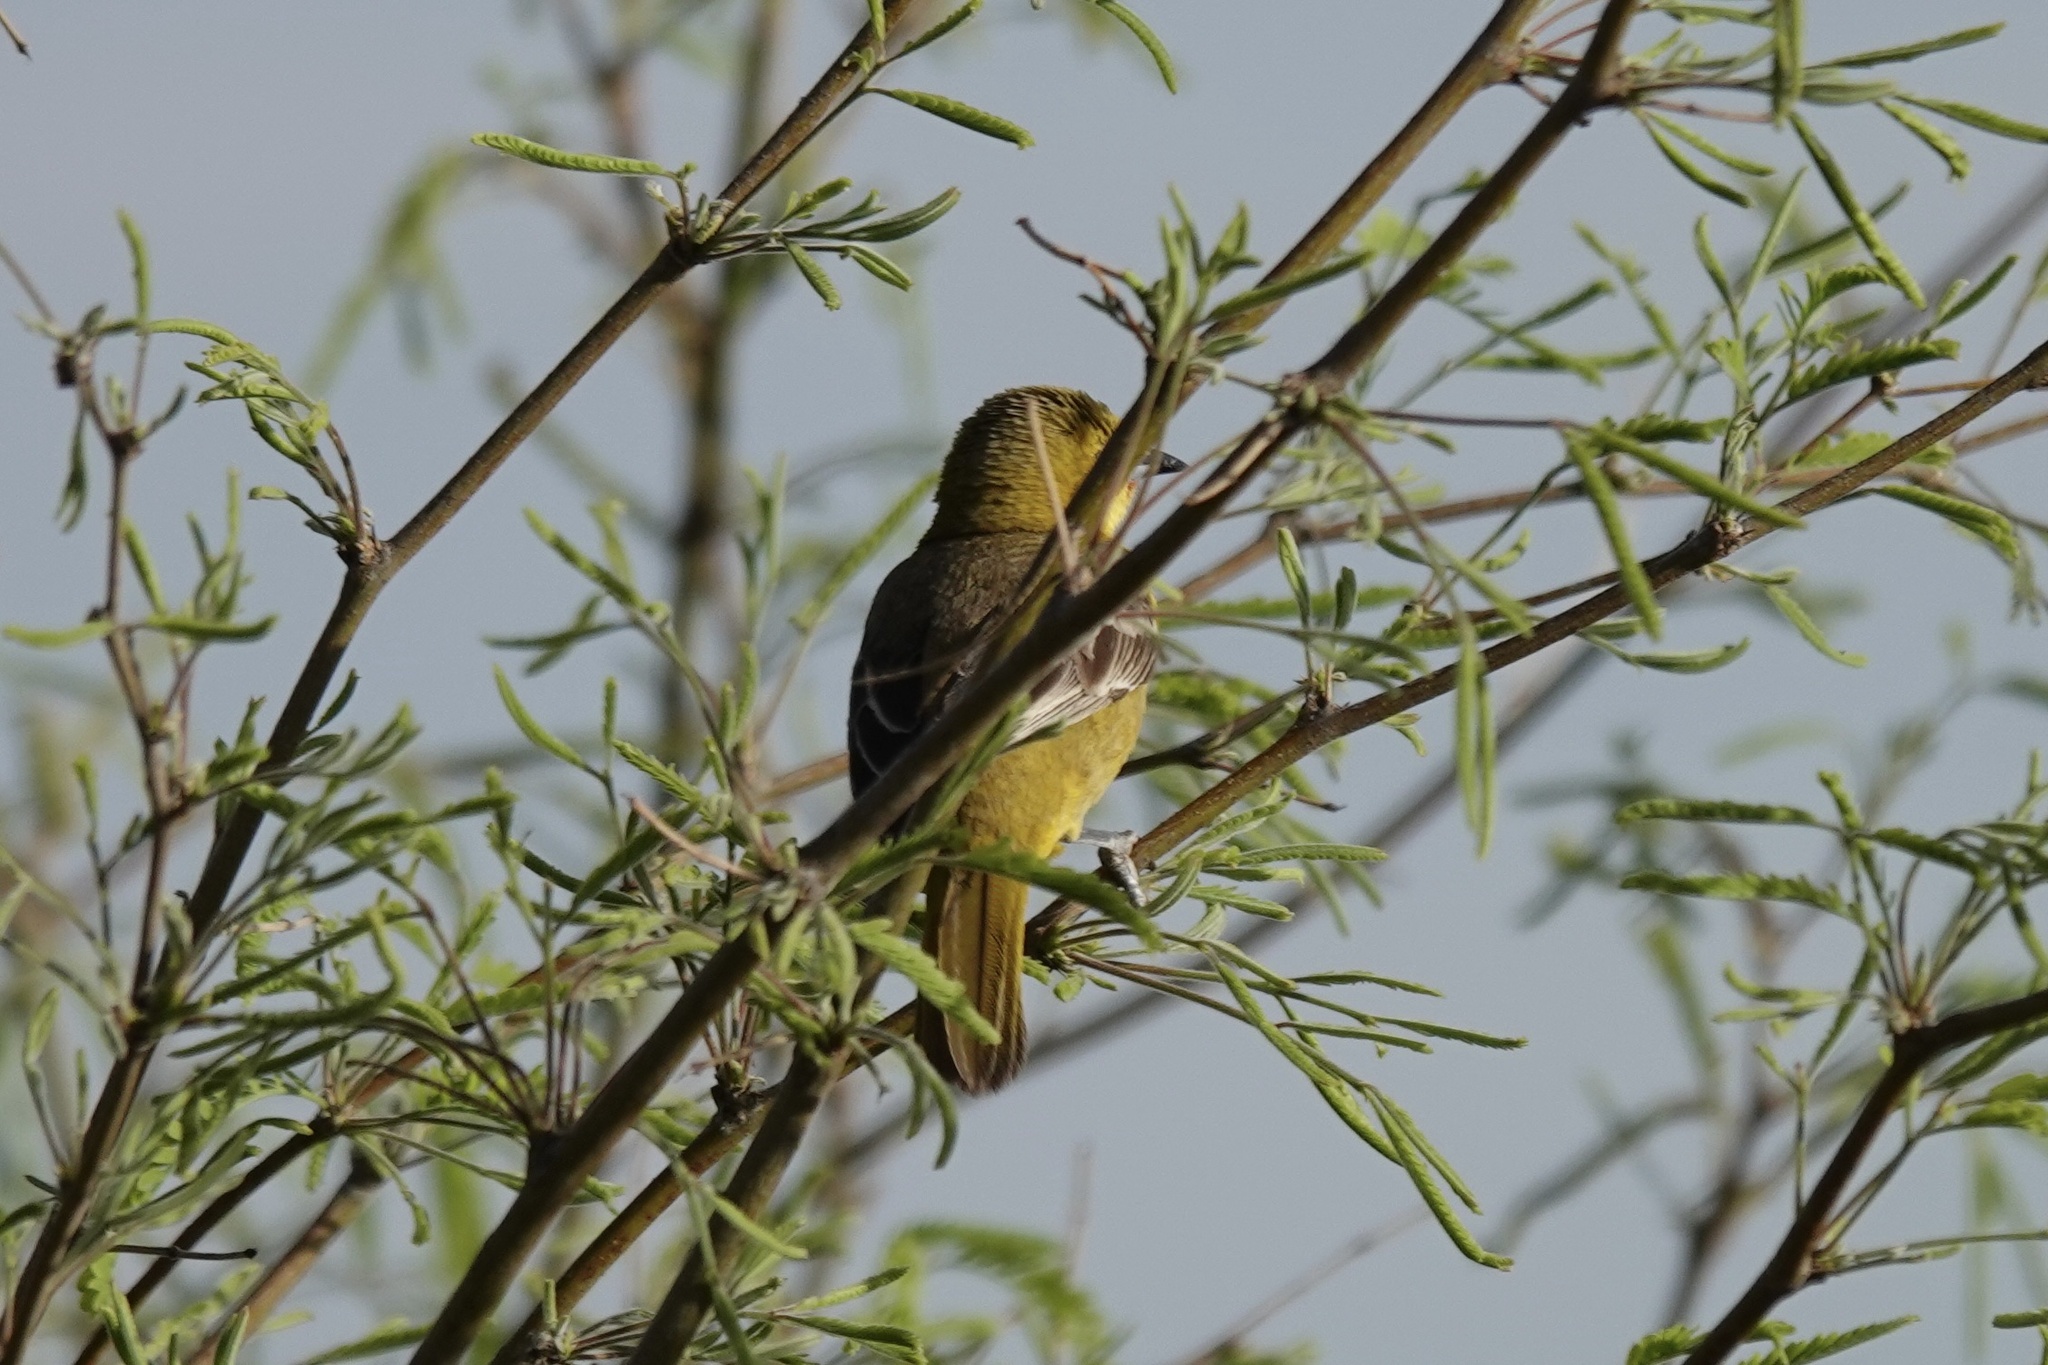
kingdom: Animalia
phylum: Chordata
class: Aves
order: Passeriformes
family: Icteridae
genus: Icterus
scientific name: Icterus cucullatus
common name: Hooded oriole
